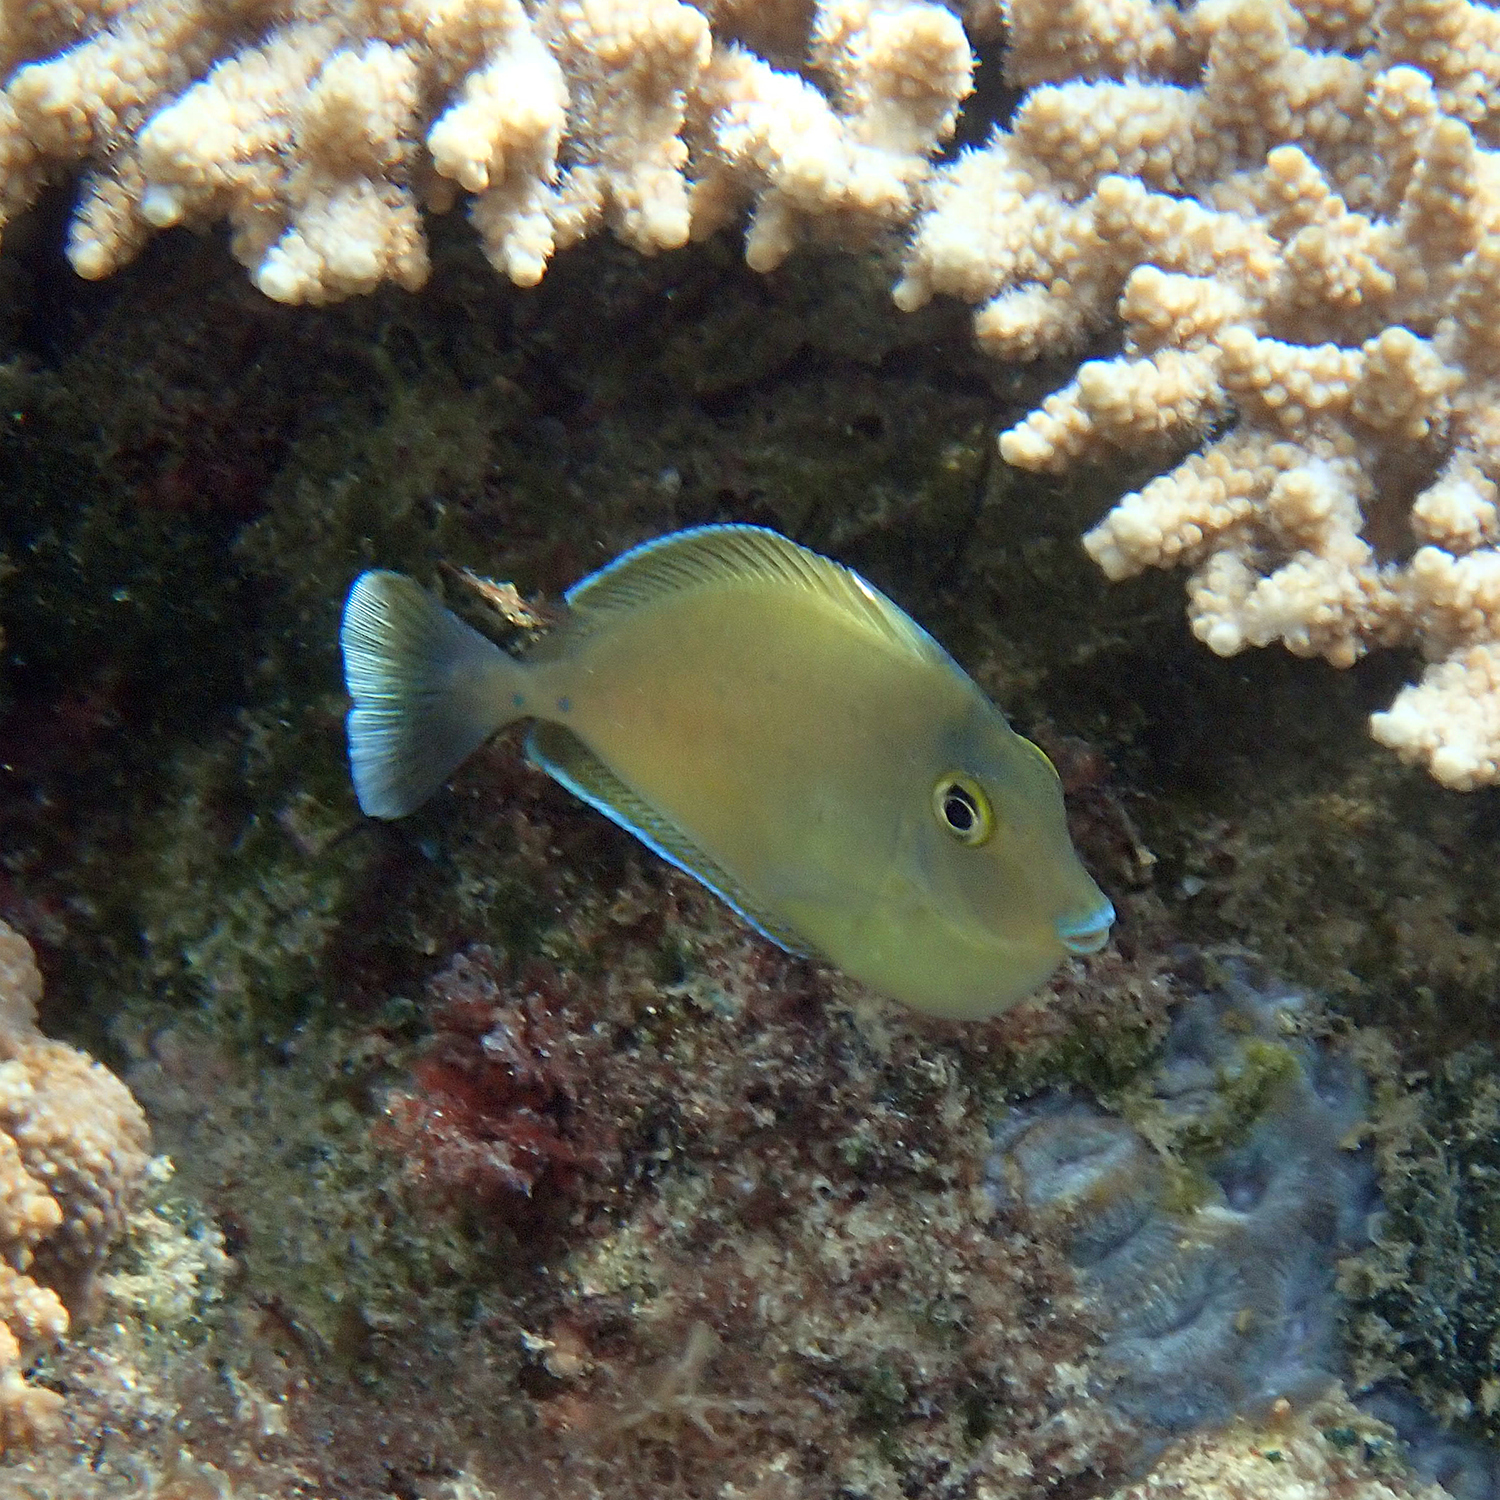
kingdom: Animalia
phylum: Chordata
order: Perciformes
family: Acanthuridae
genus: Naso
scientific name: Naso unicornis
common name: Bluespine unicornfish
